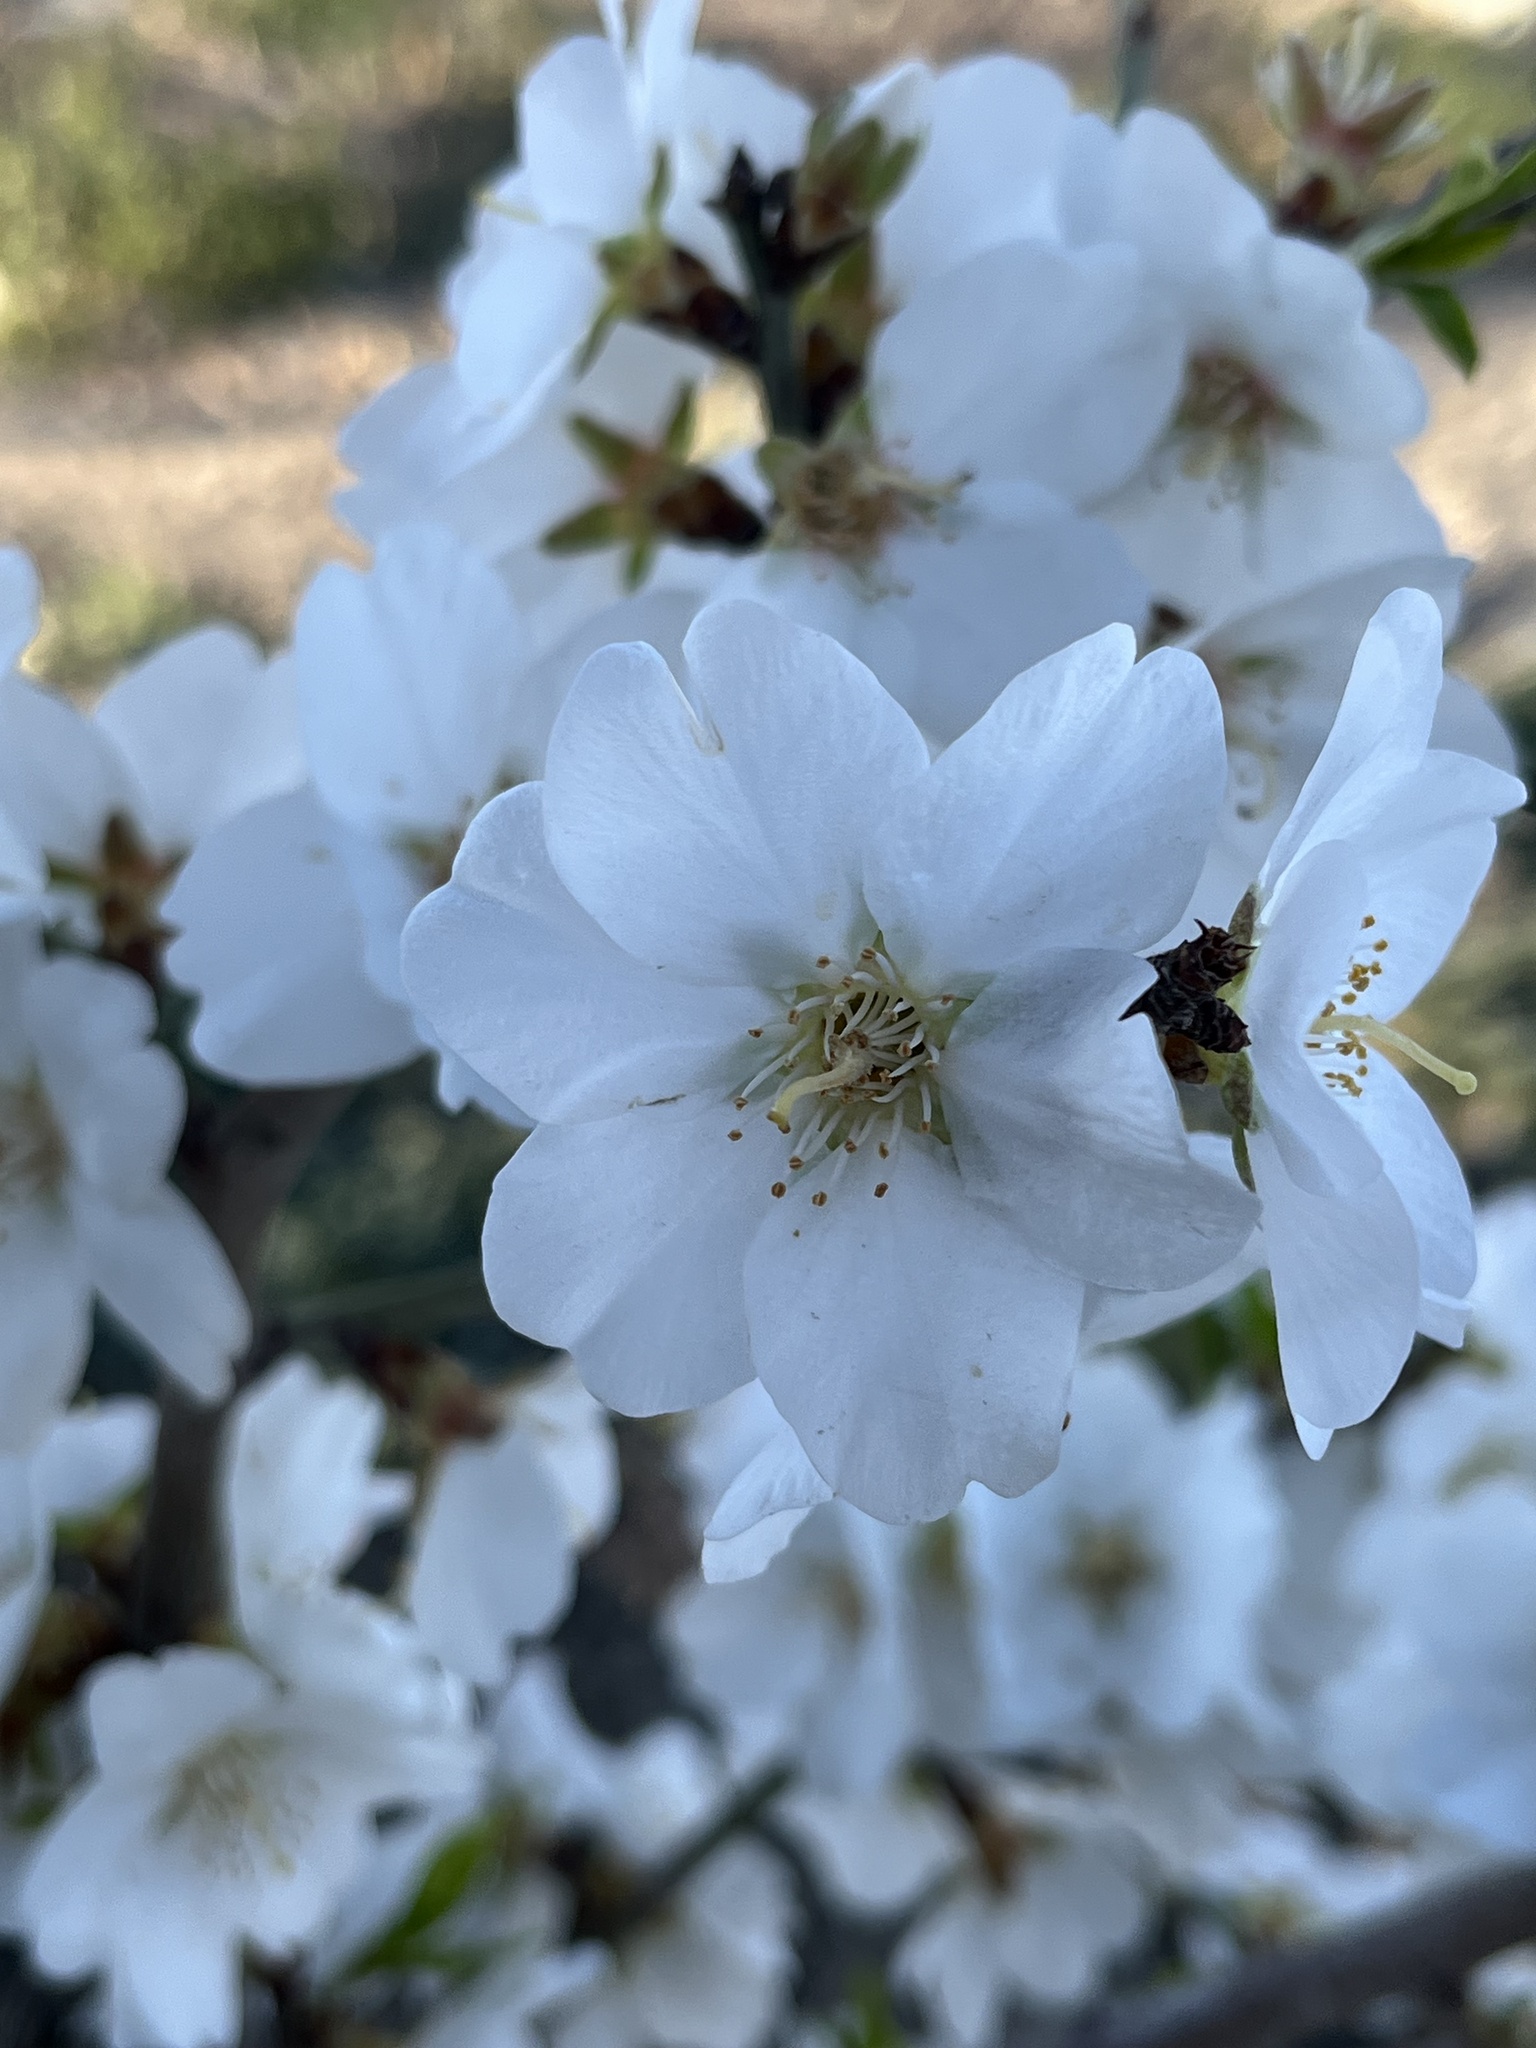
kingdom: Plantae
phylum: Tracheophyta
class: Magnoliopsida
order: Rosales
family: Rosaceae
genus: Prunus
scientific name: Prunus amygdalus
